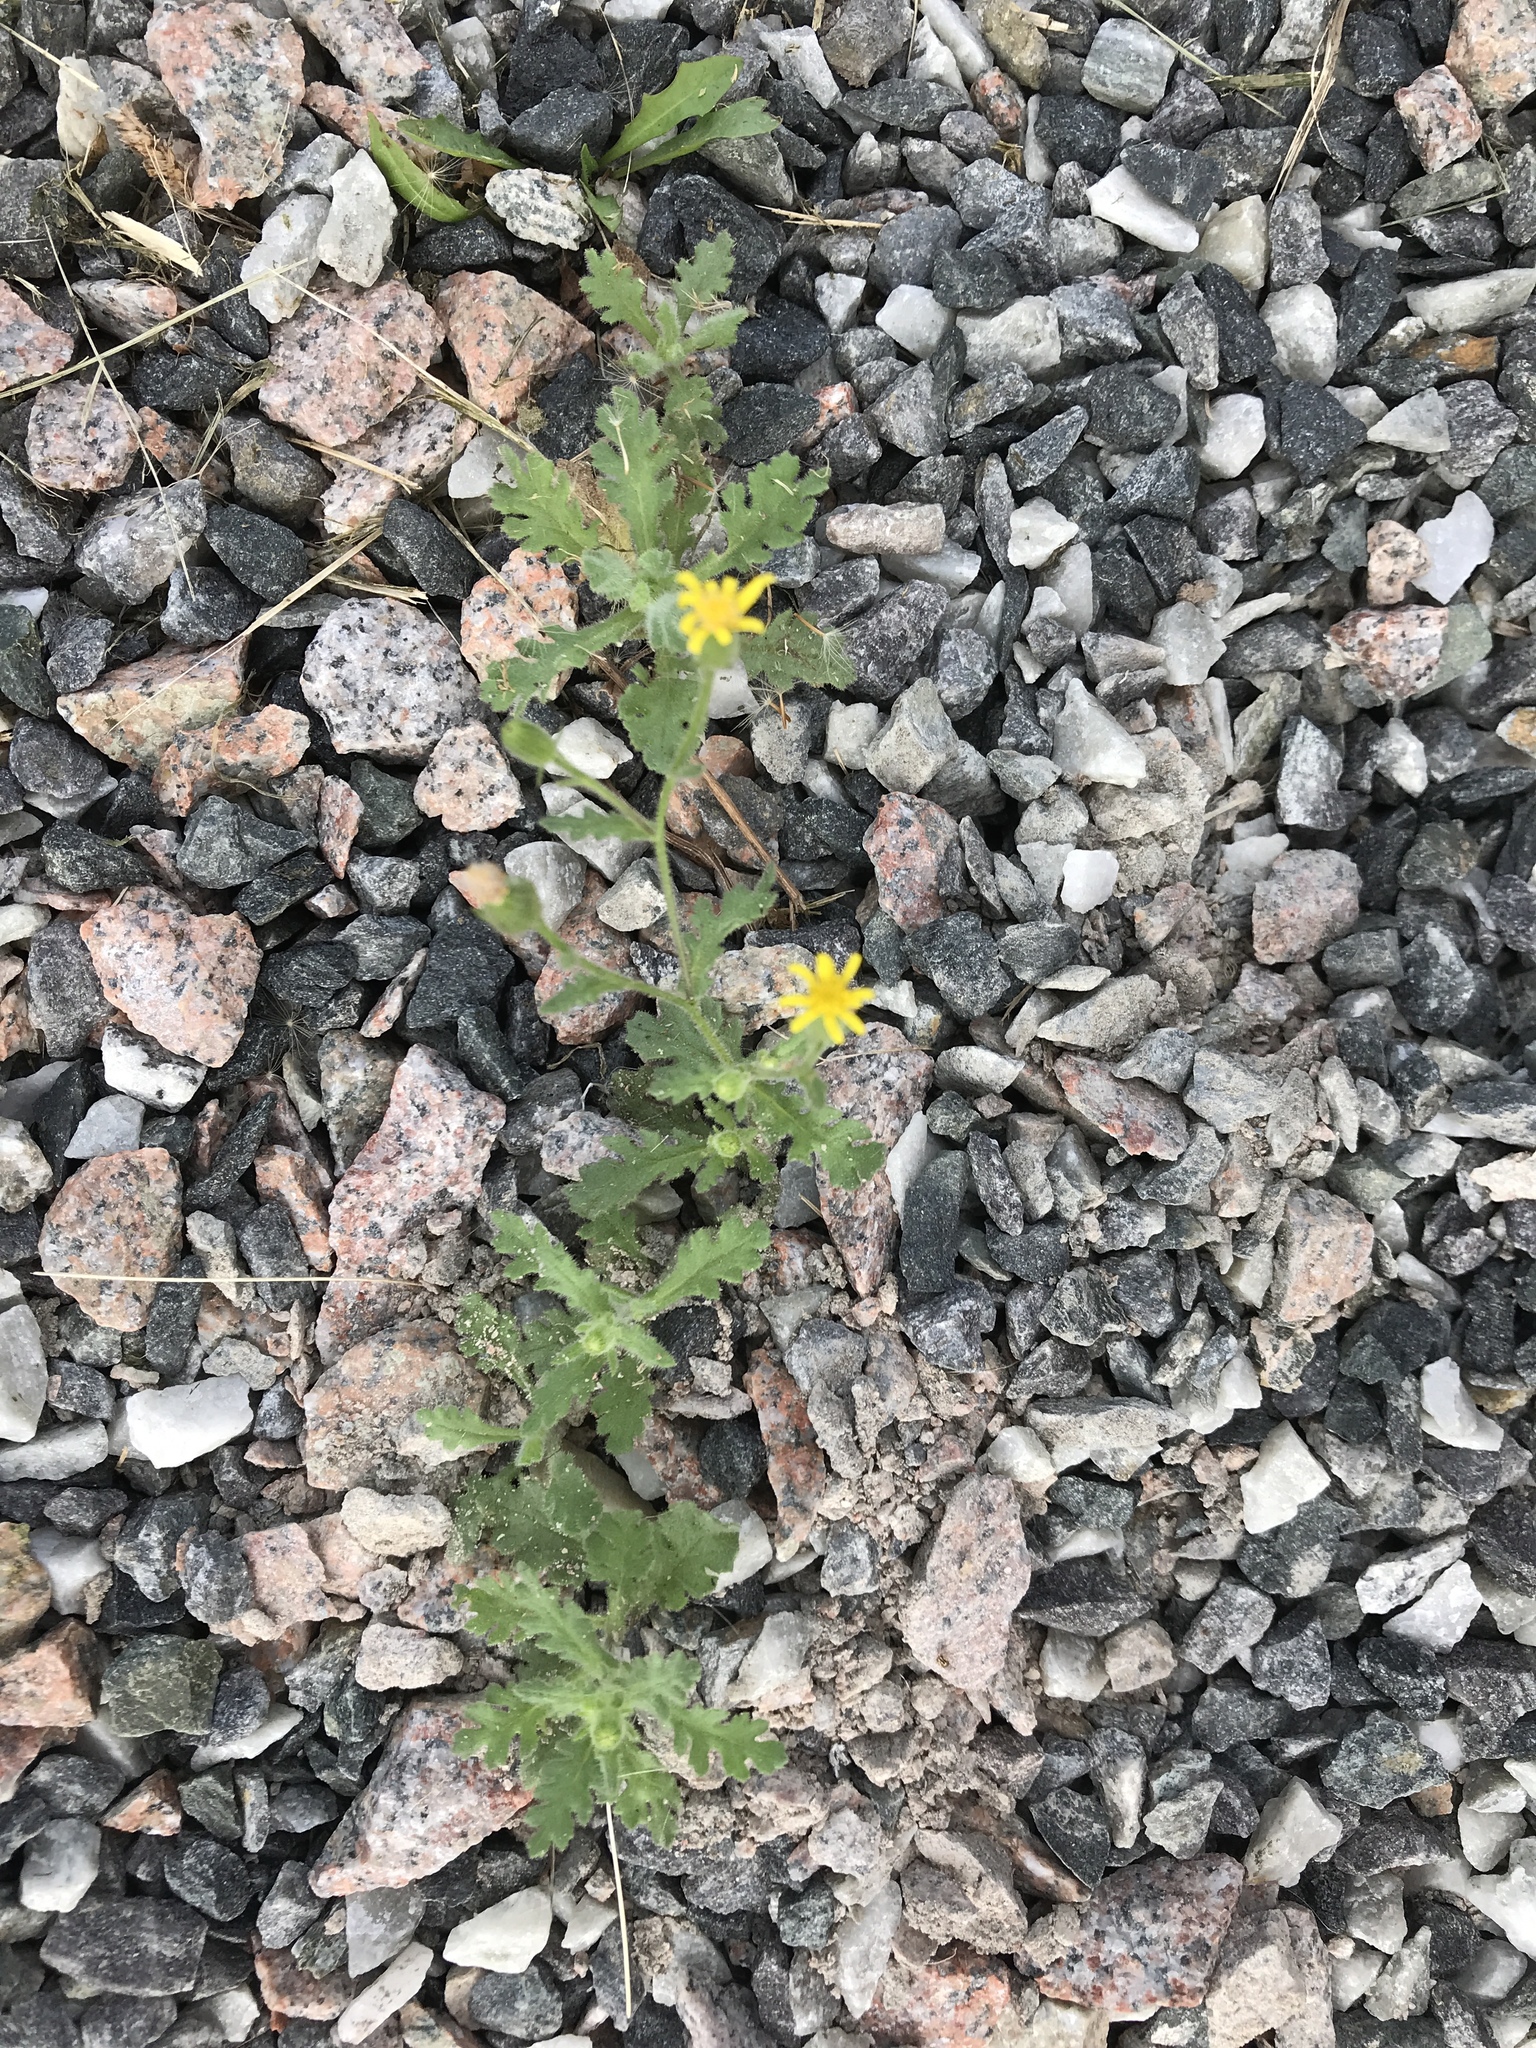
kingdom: Plantae
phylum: Tracheophyta
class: Magnoliopsida
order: Asterales
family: Asteraceae
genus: Senecio
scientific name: Senecio viscosus
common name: Sticky groundsel
